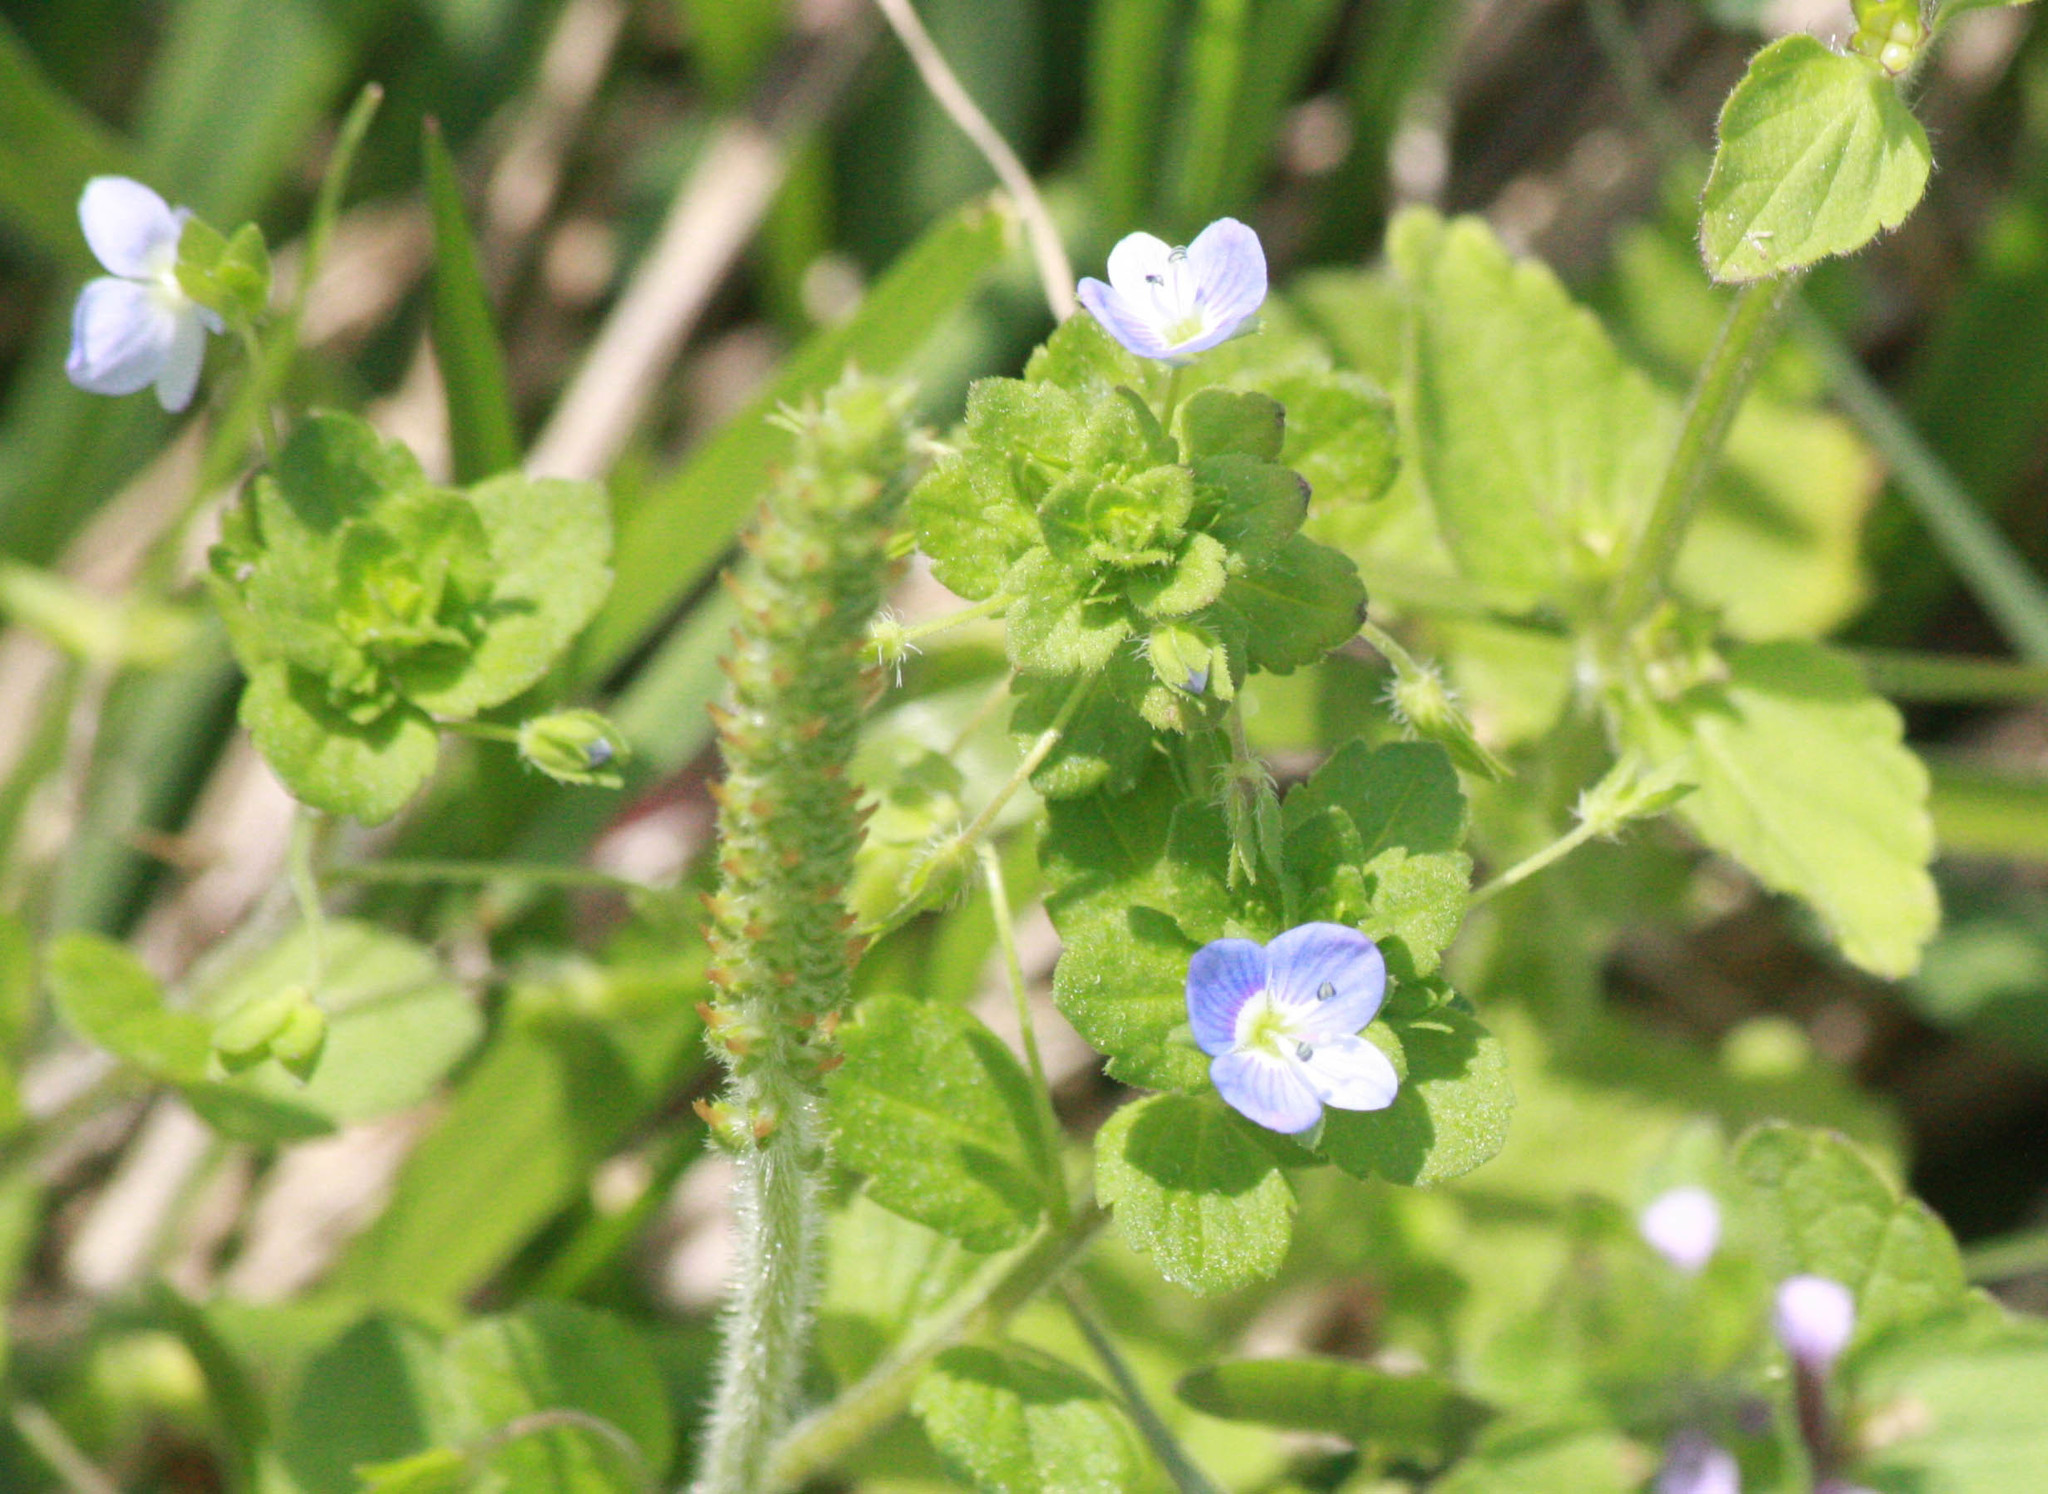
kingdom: Plantae
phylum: Tracheophyta
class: Magnoliopsida
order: Lamiales
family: Plantaginaceae
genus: Veronica
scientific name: Veronica persica
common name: Common field-speedwell
